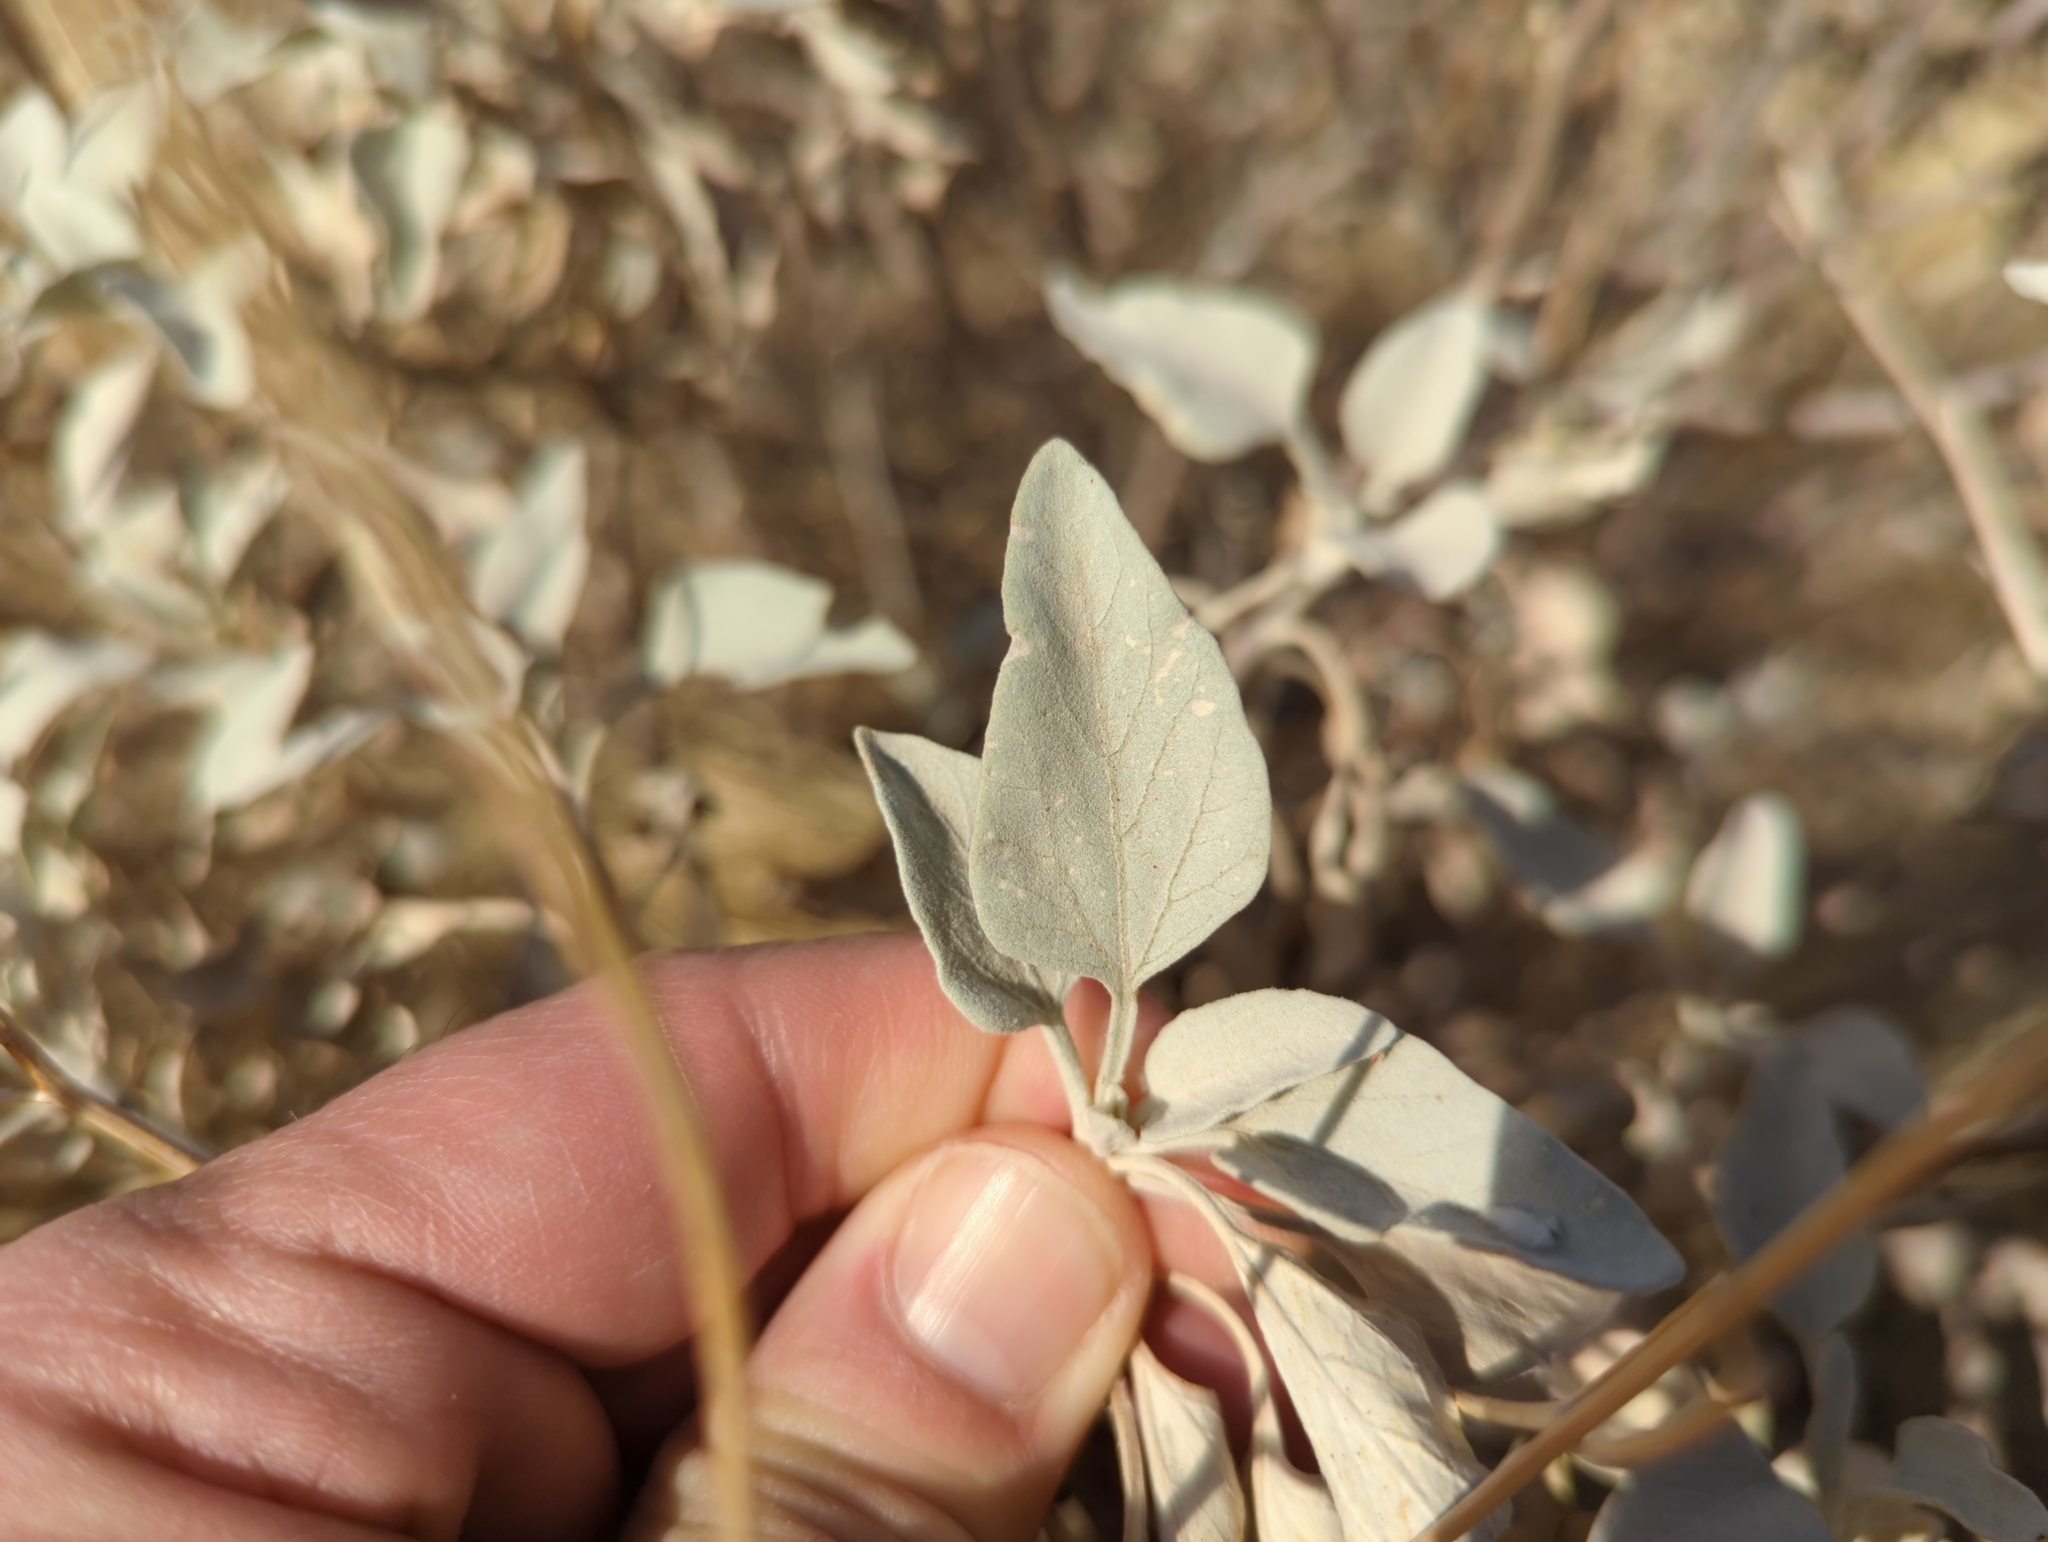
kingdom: Plantae
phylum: Tracheophyta
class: Magnoliopsida
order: Asterales
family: Asteraceae
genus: Encelia
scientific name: Encelia farinosa
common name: Brittlebush
